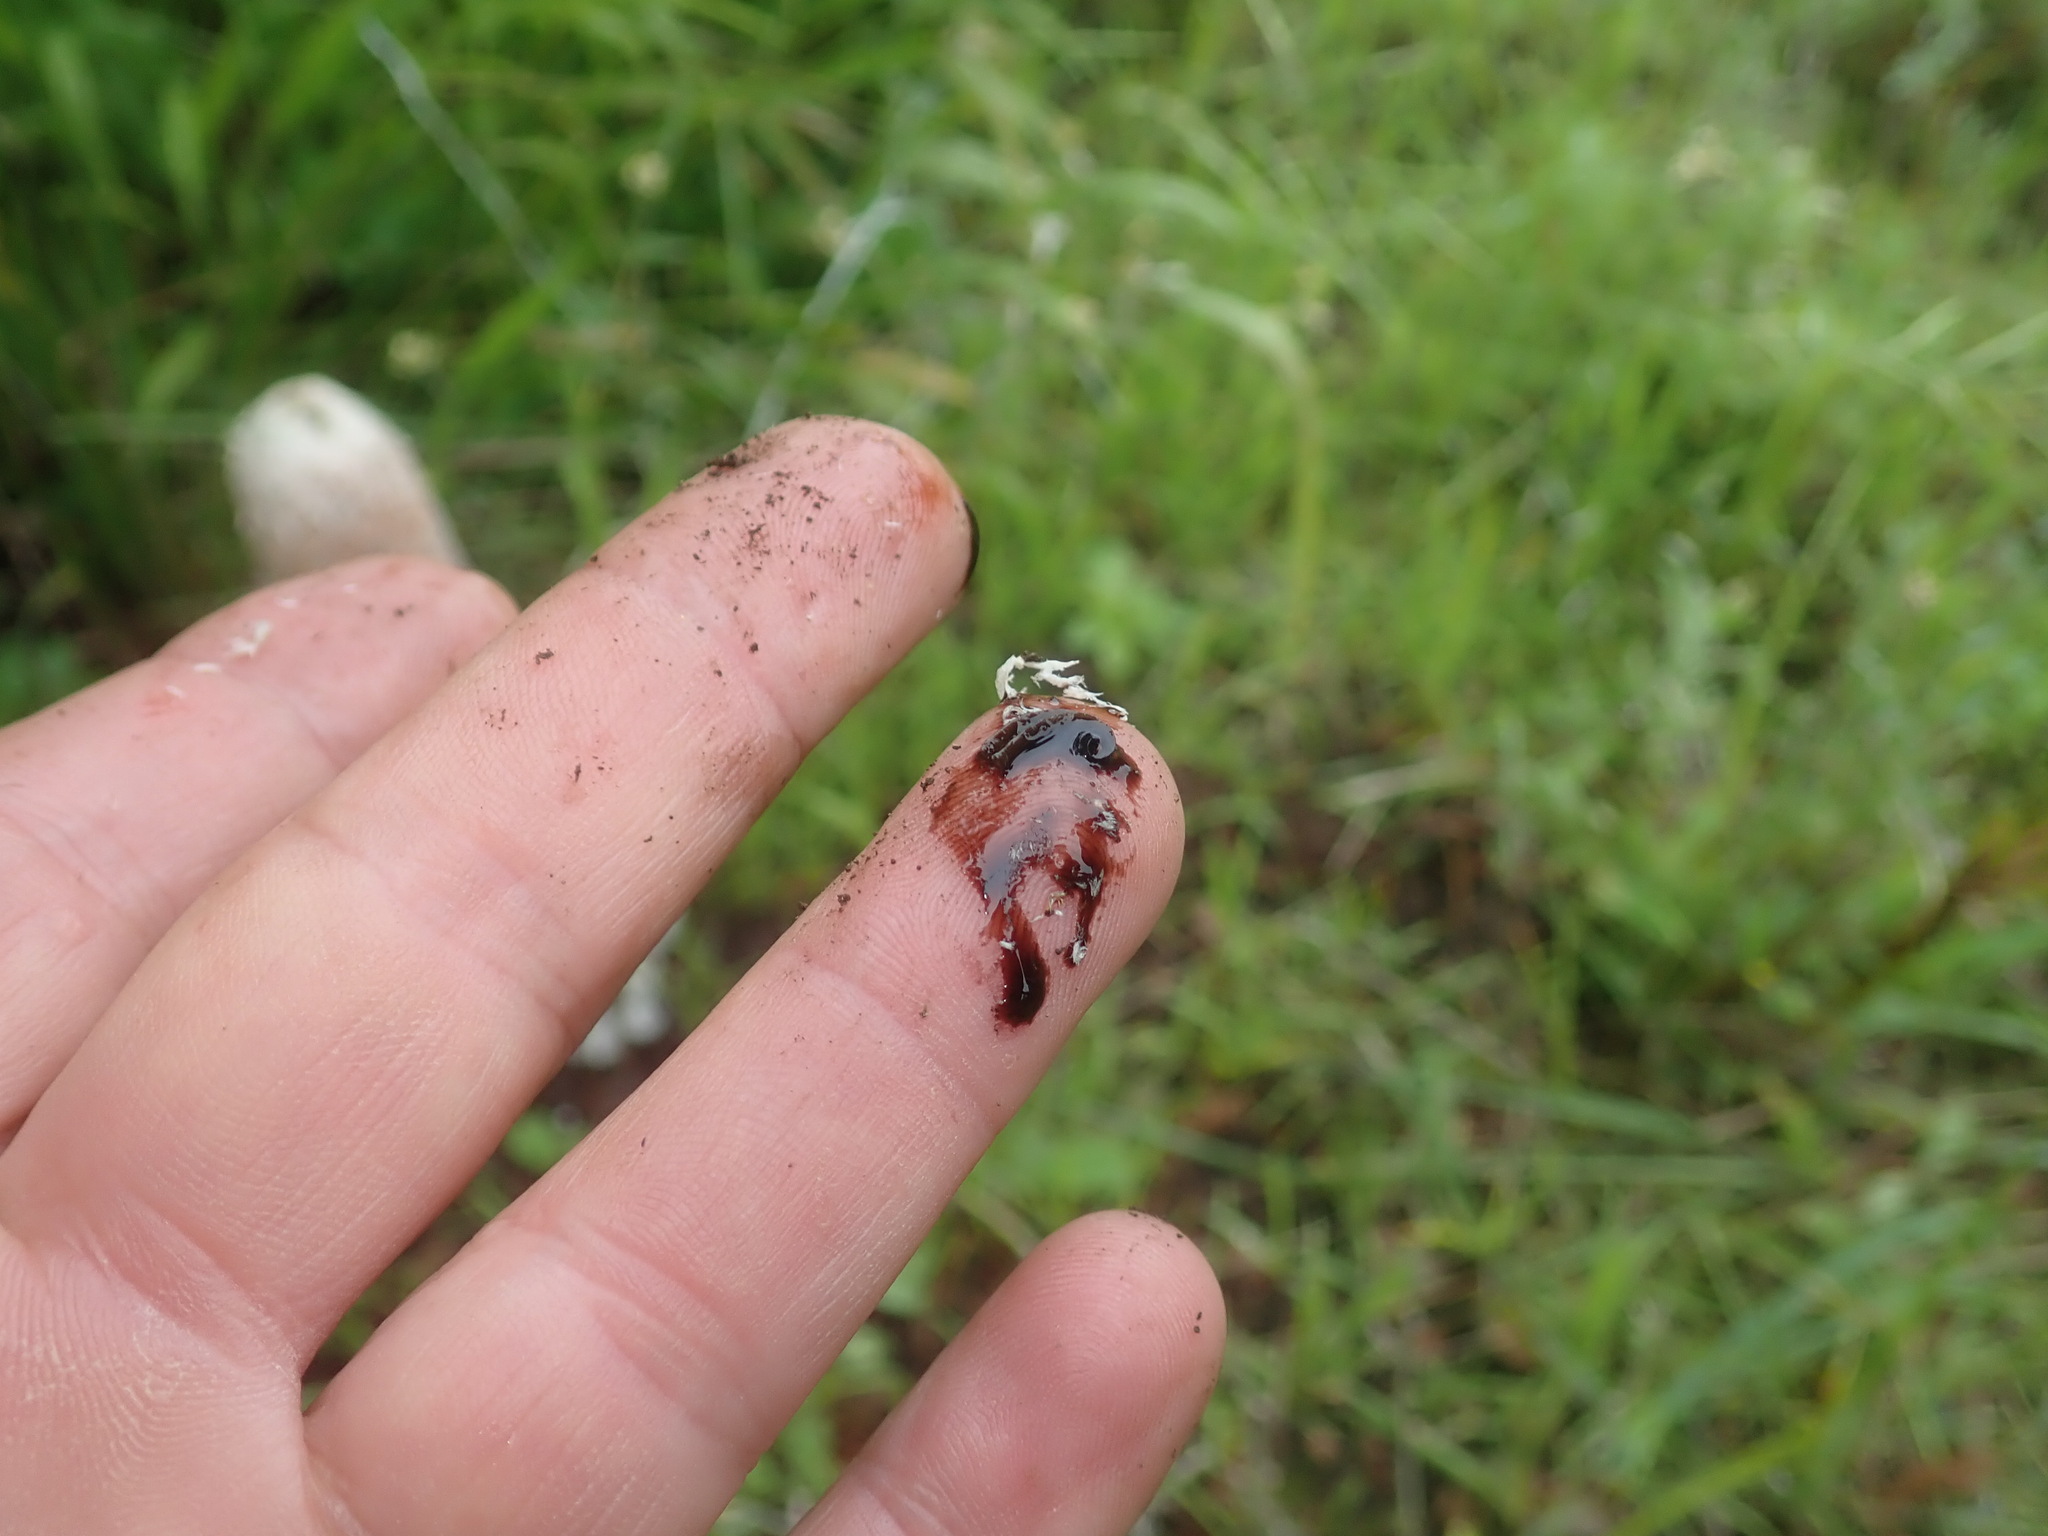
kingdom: Fungi
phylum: Basidiomycota
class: Agaricomycetes
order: Agaricales
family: Agaricaceae
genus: Coprinus
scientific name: Coprinus comatus
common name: Lawyer's wig
